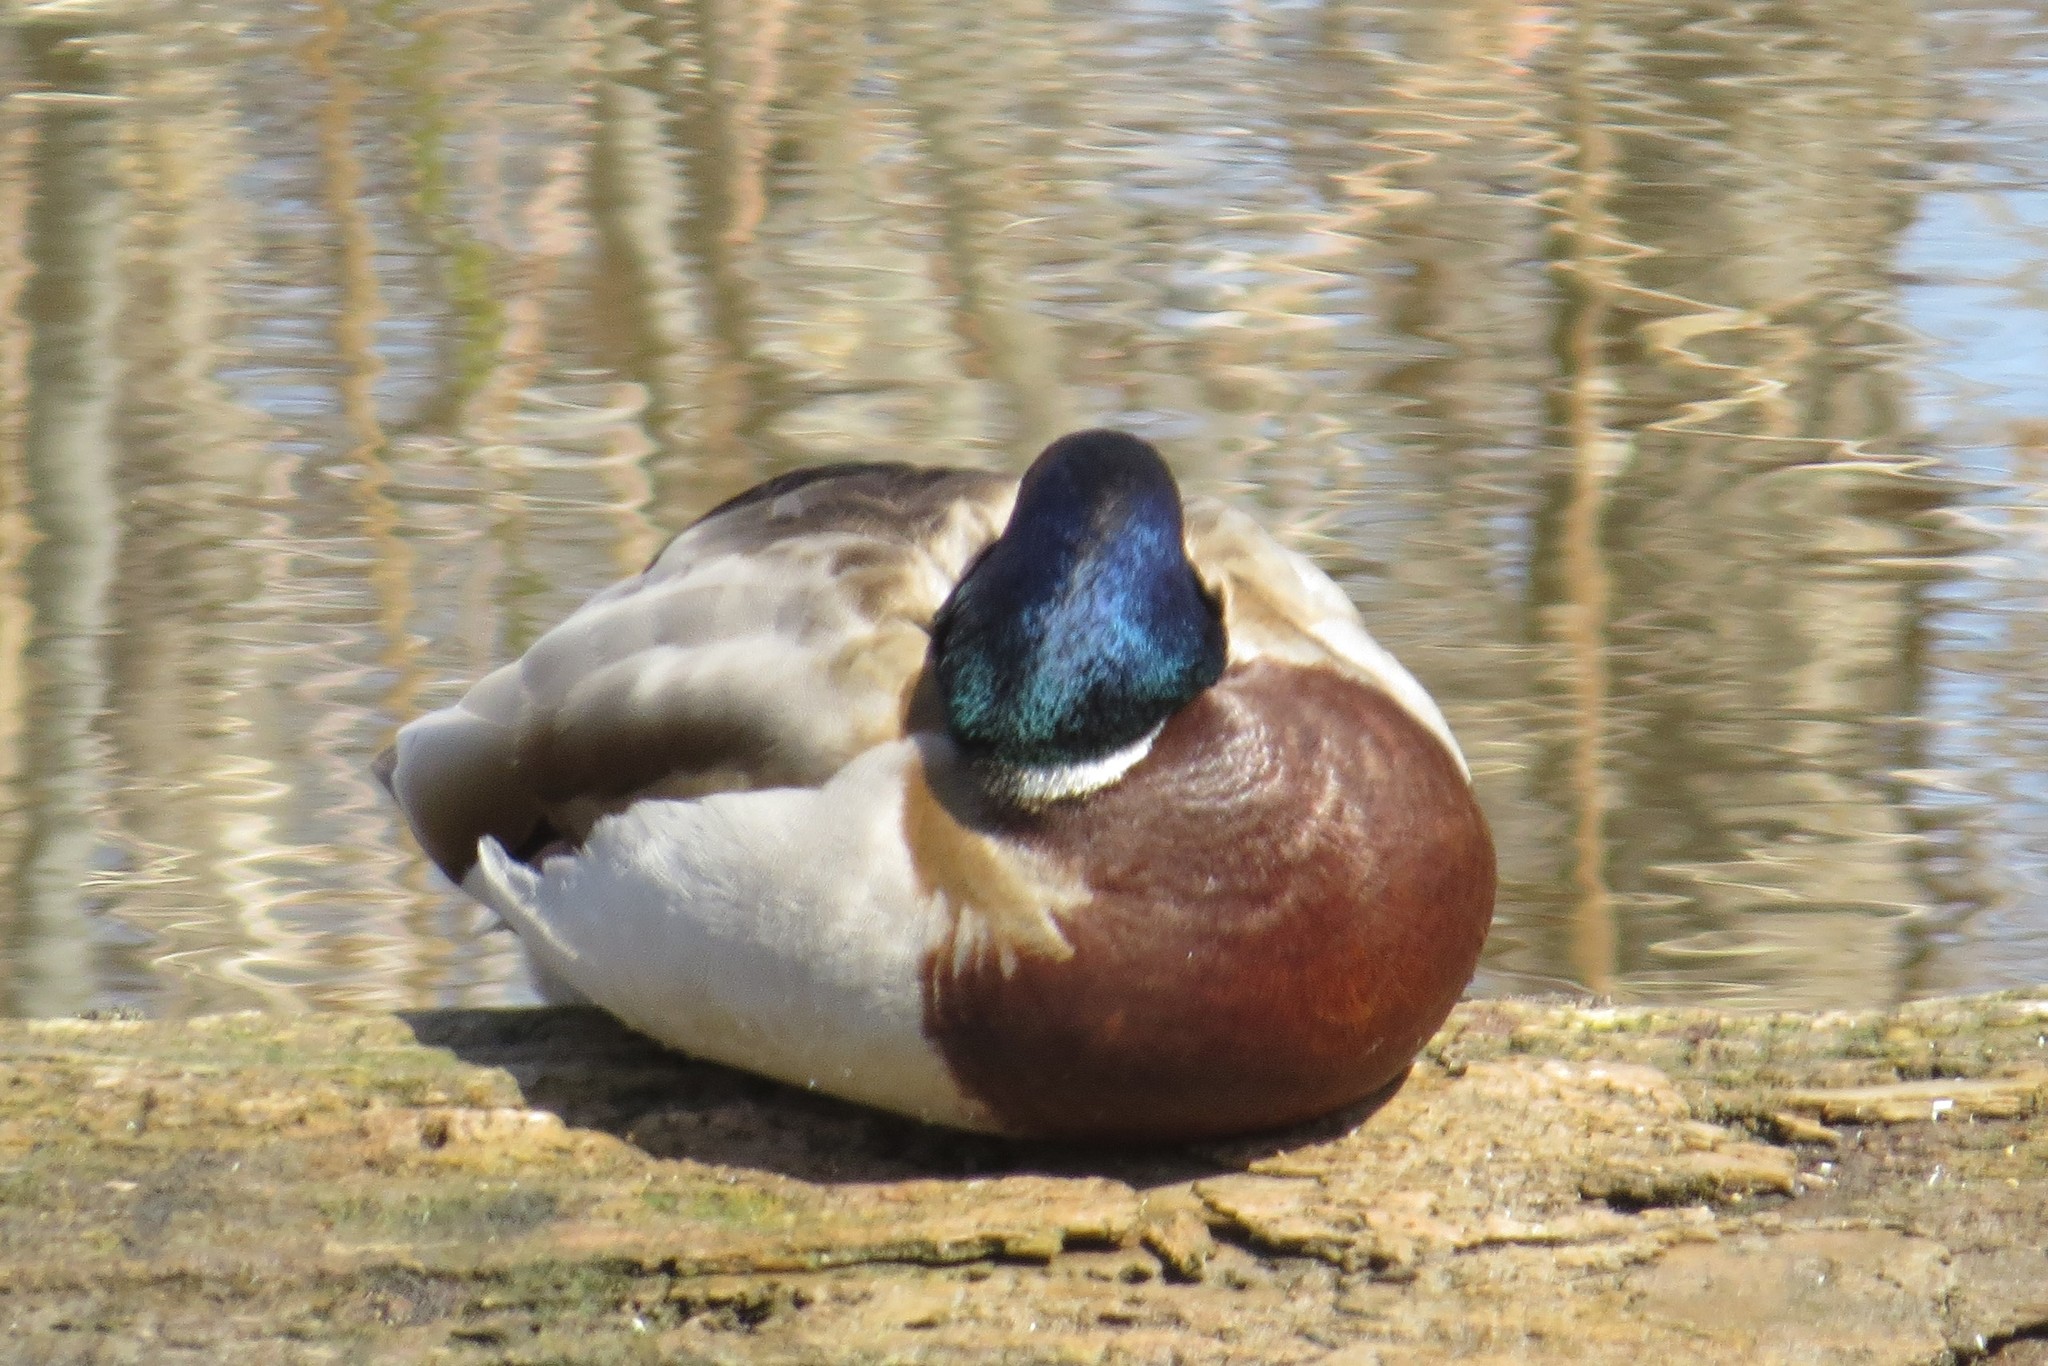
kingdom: Animalia
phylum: Chordata
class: Aves
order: Anseriformes
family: Anatidae
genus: Anas
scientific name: Anas platyrhynchos
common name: Mallard
